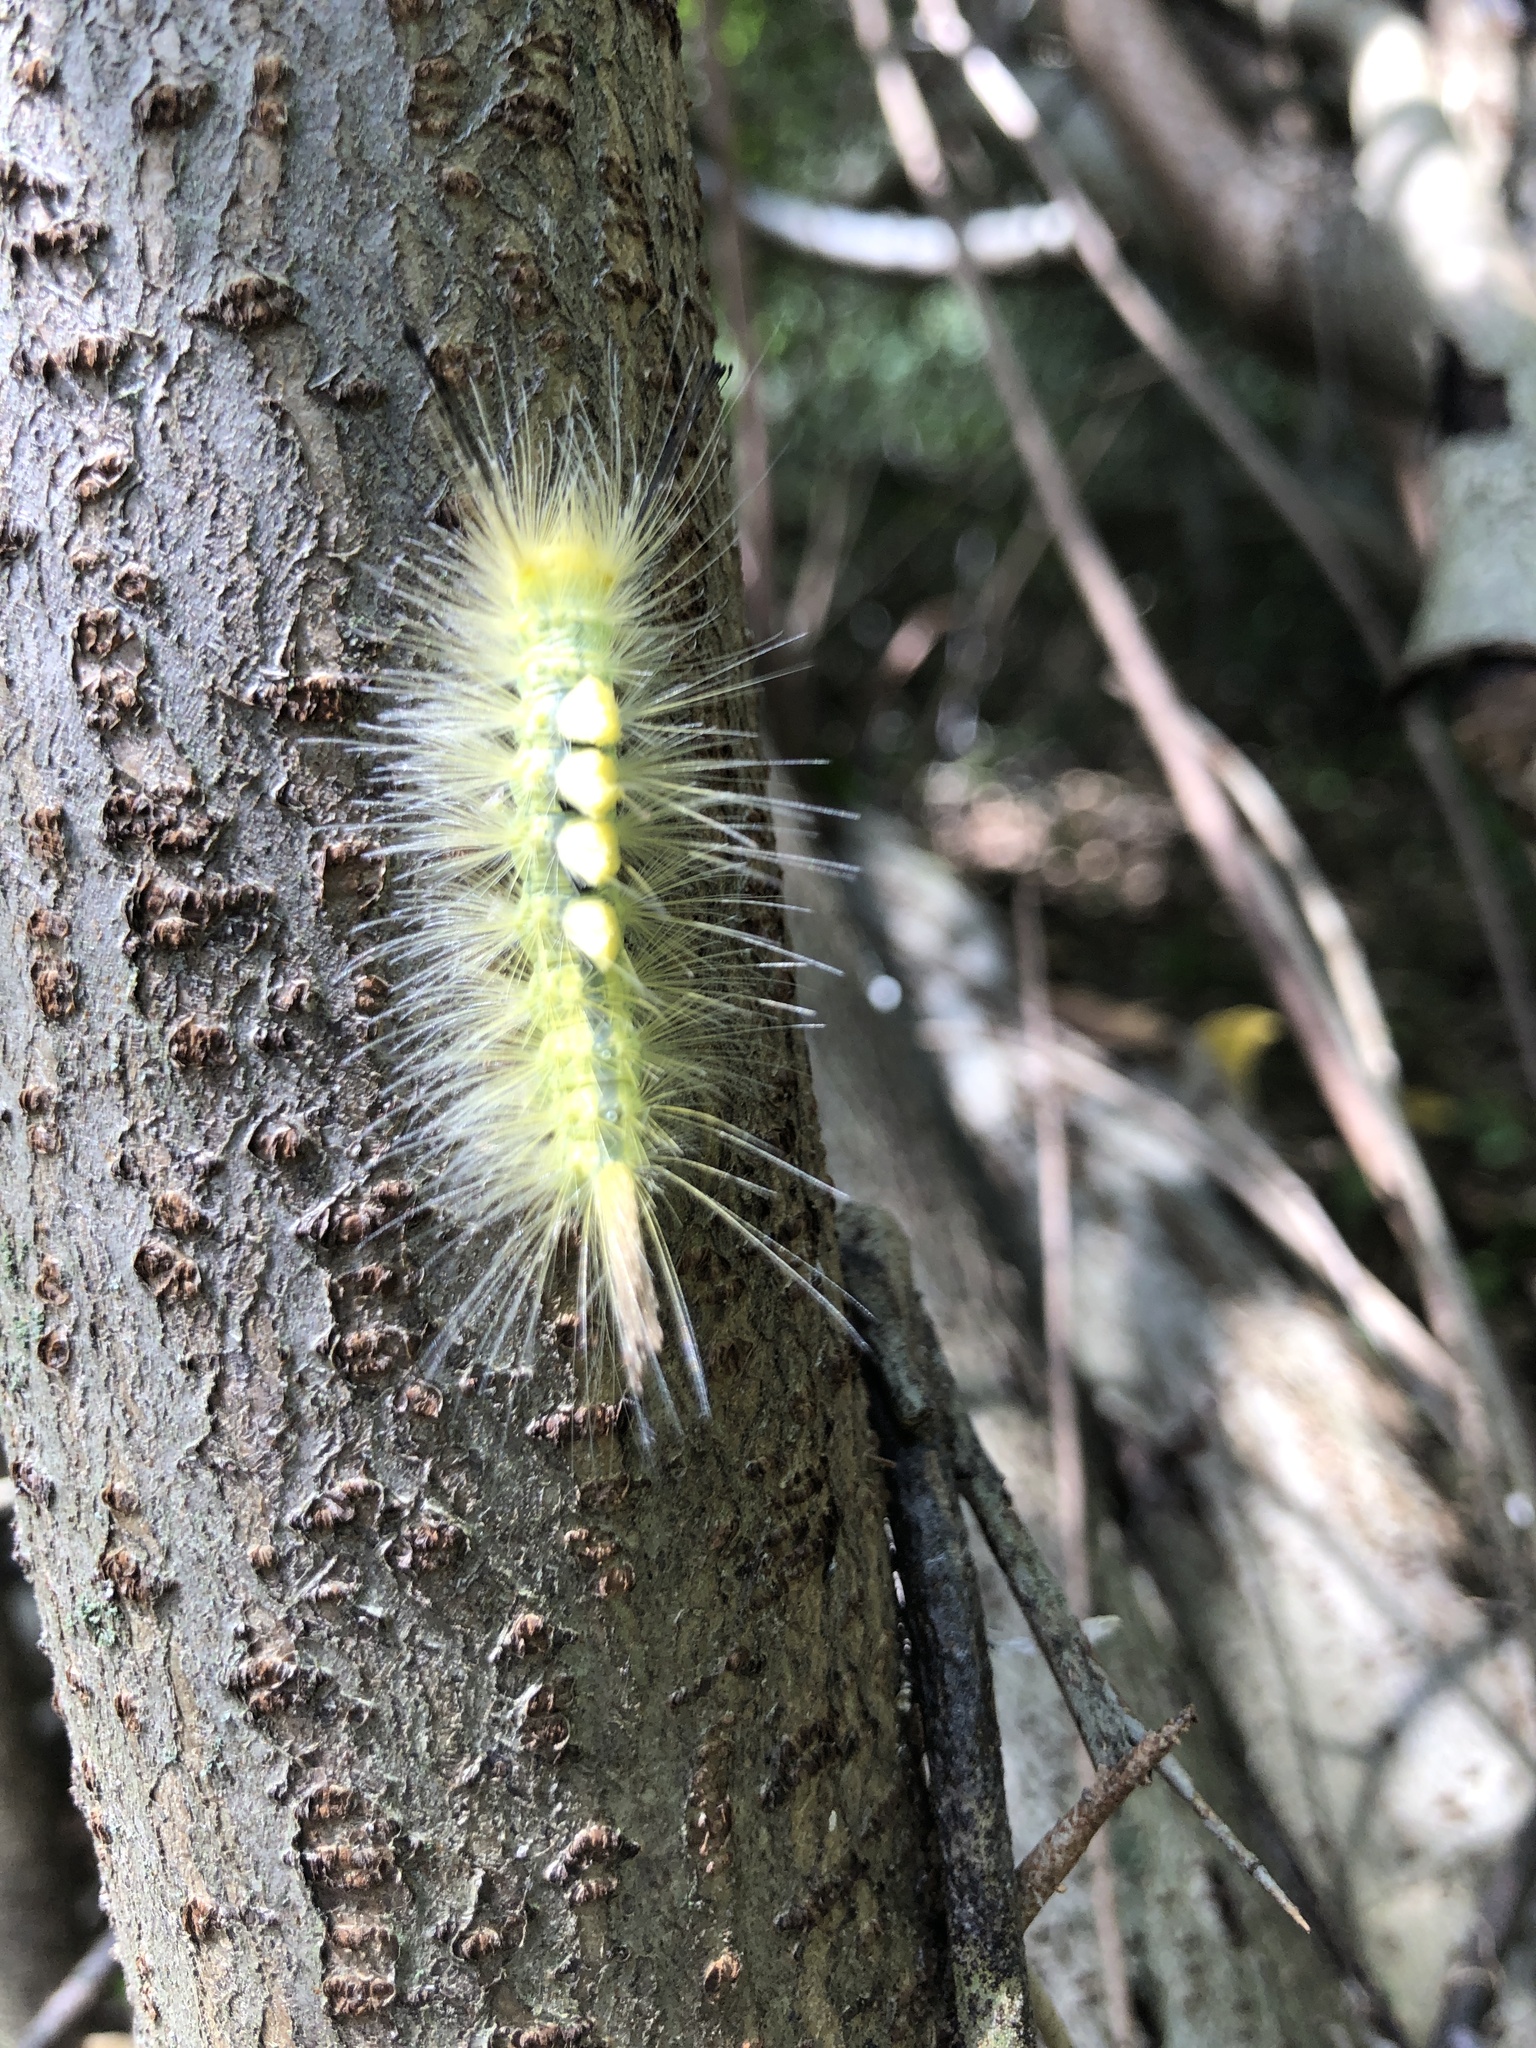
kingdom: Animalia
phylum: Arthropoda
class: Insecta
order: Lepidoptera
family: Erebidae
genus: Orgyia
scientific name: Orgyia definita
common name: Definite tussock moth
